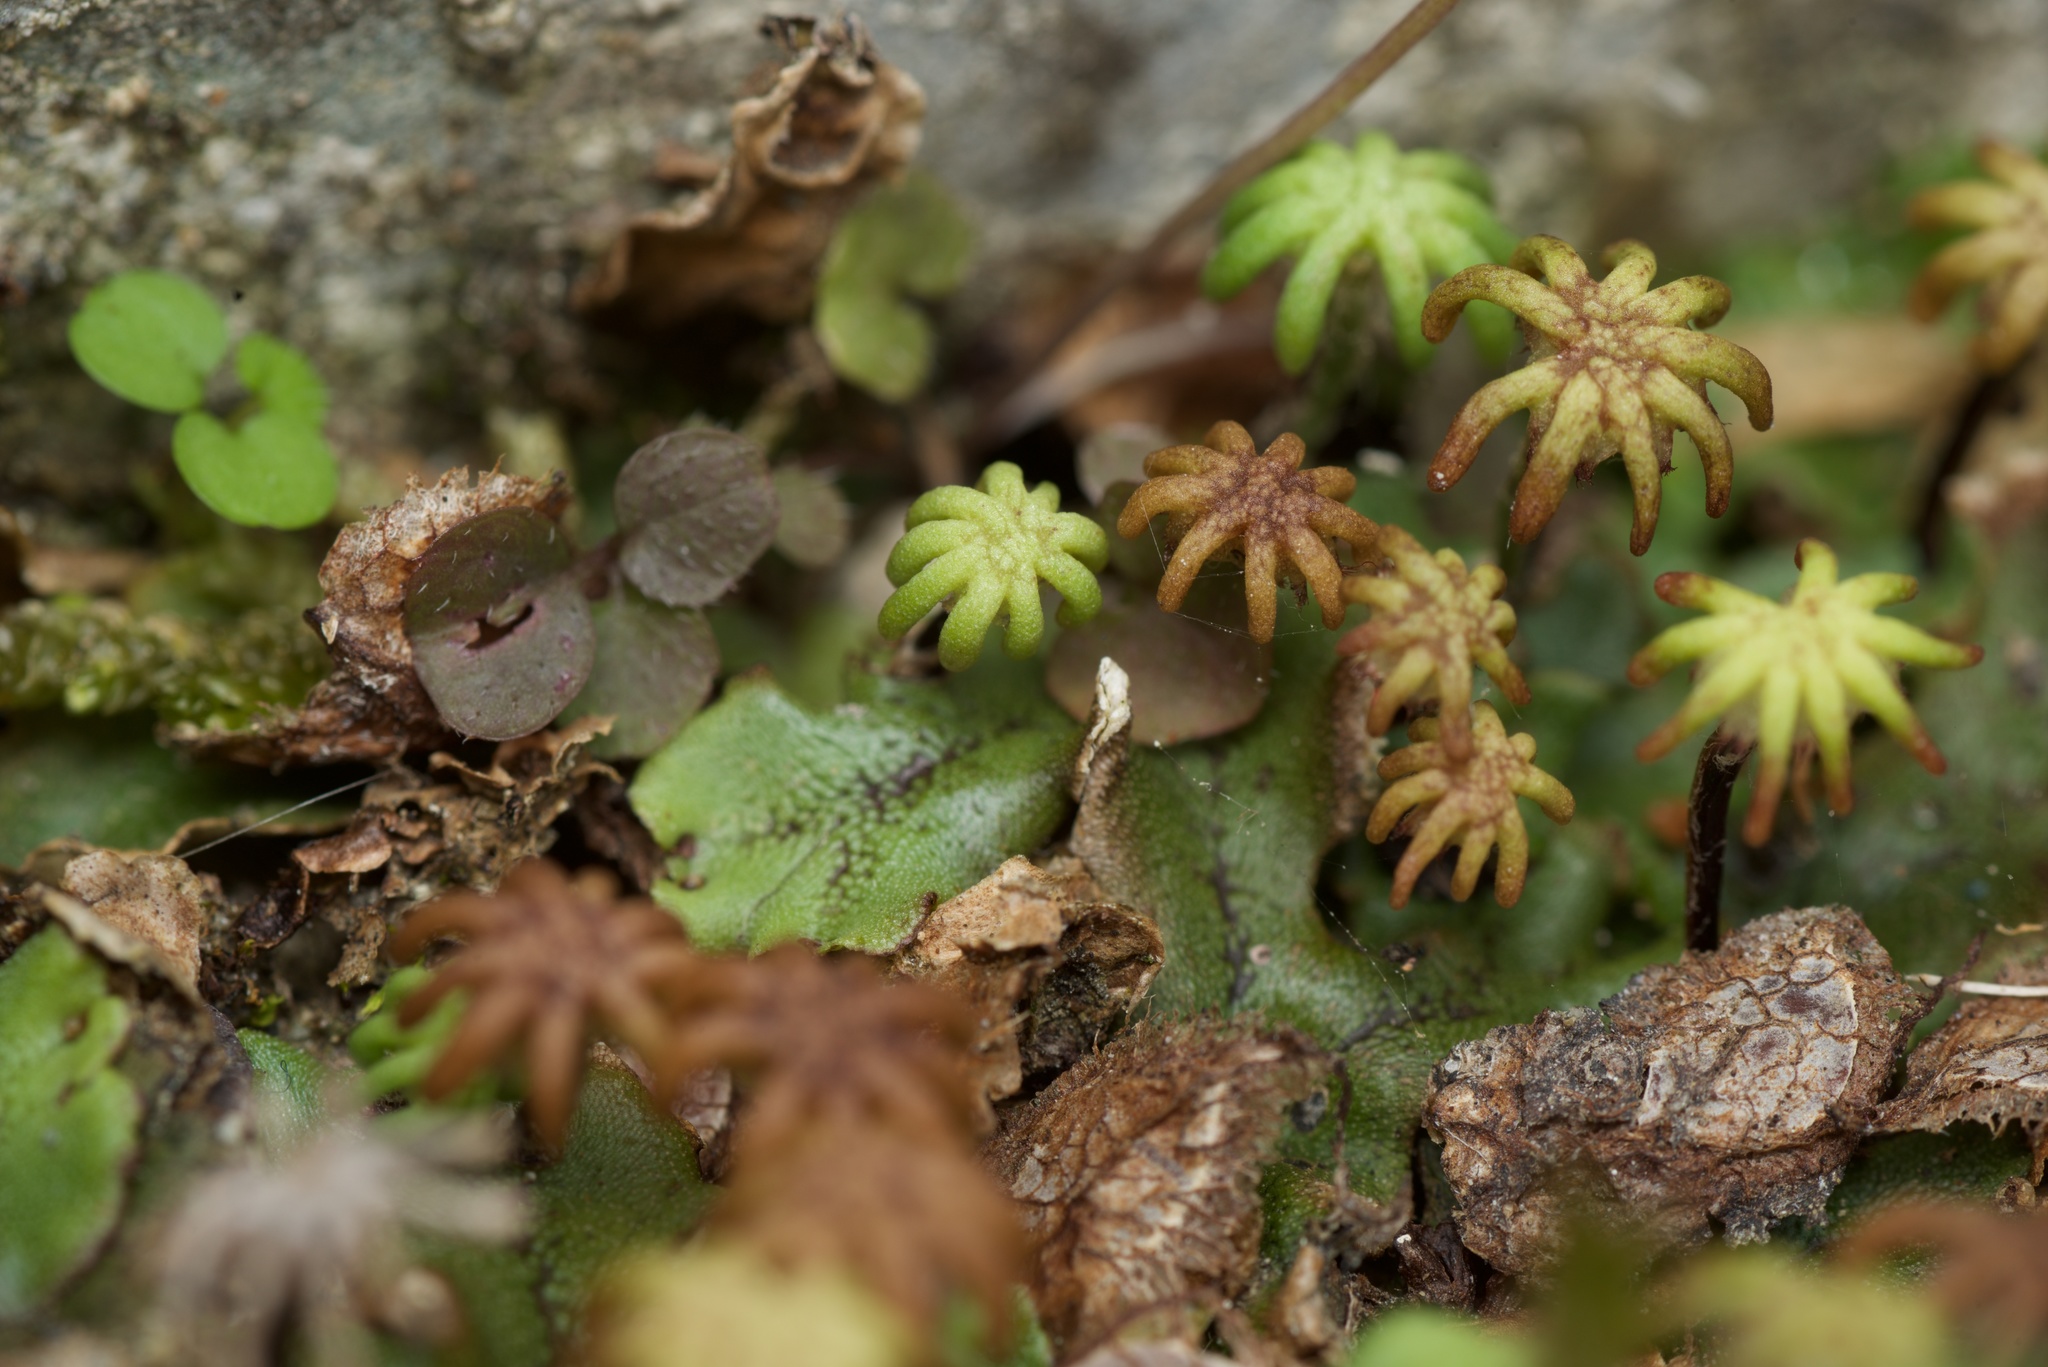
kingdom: Plantae
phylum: Marchantiophyta
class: Marchantiopsida
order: Marchantiales
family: Marchantiaceae
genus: Marchantia
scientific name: Marchantia polymorpha
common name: Common liverwort
